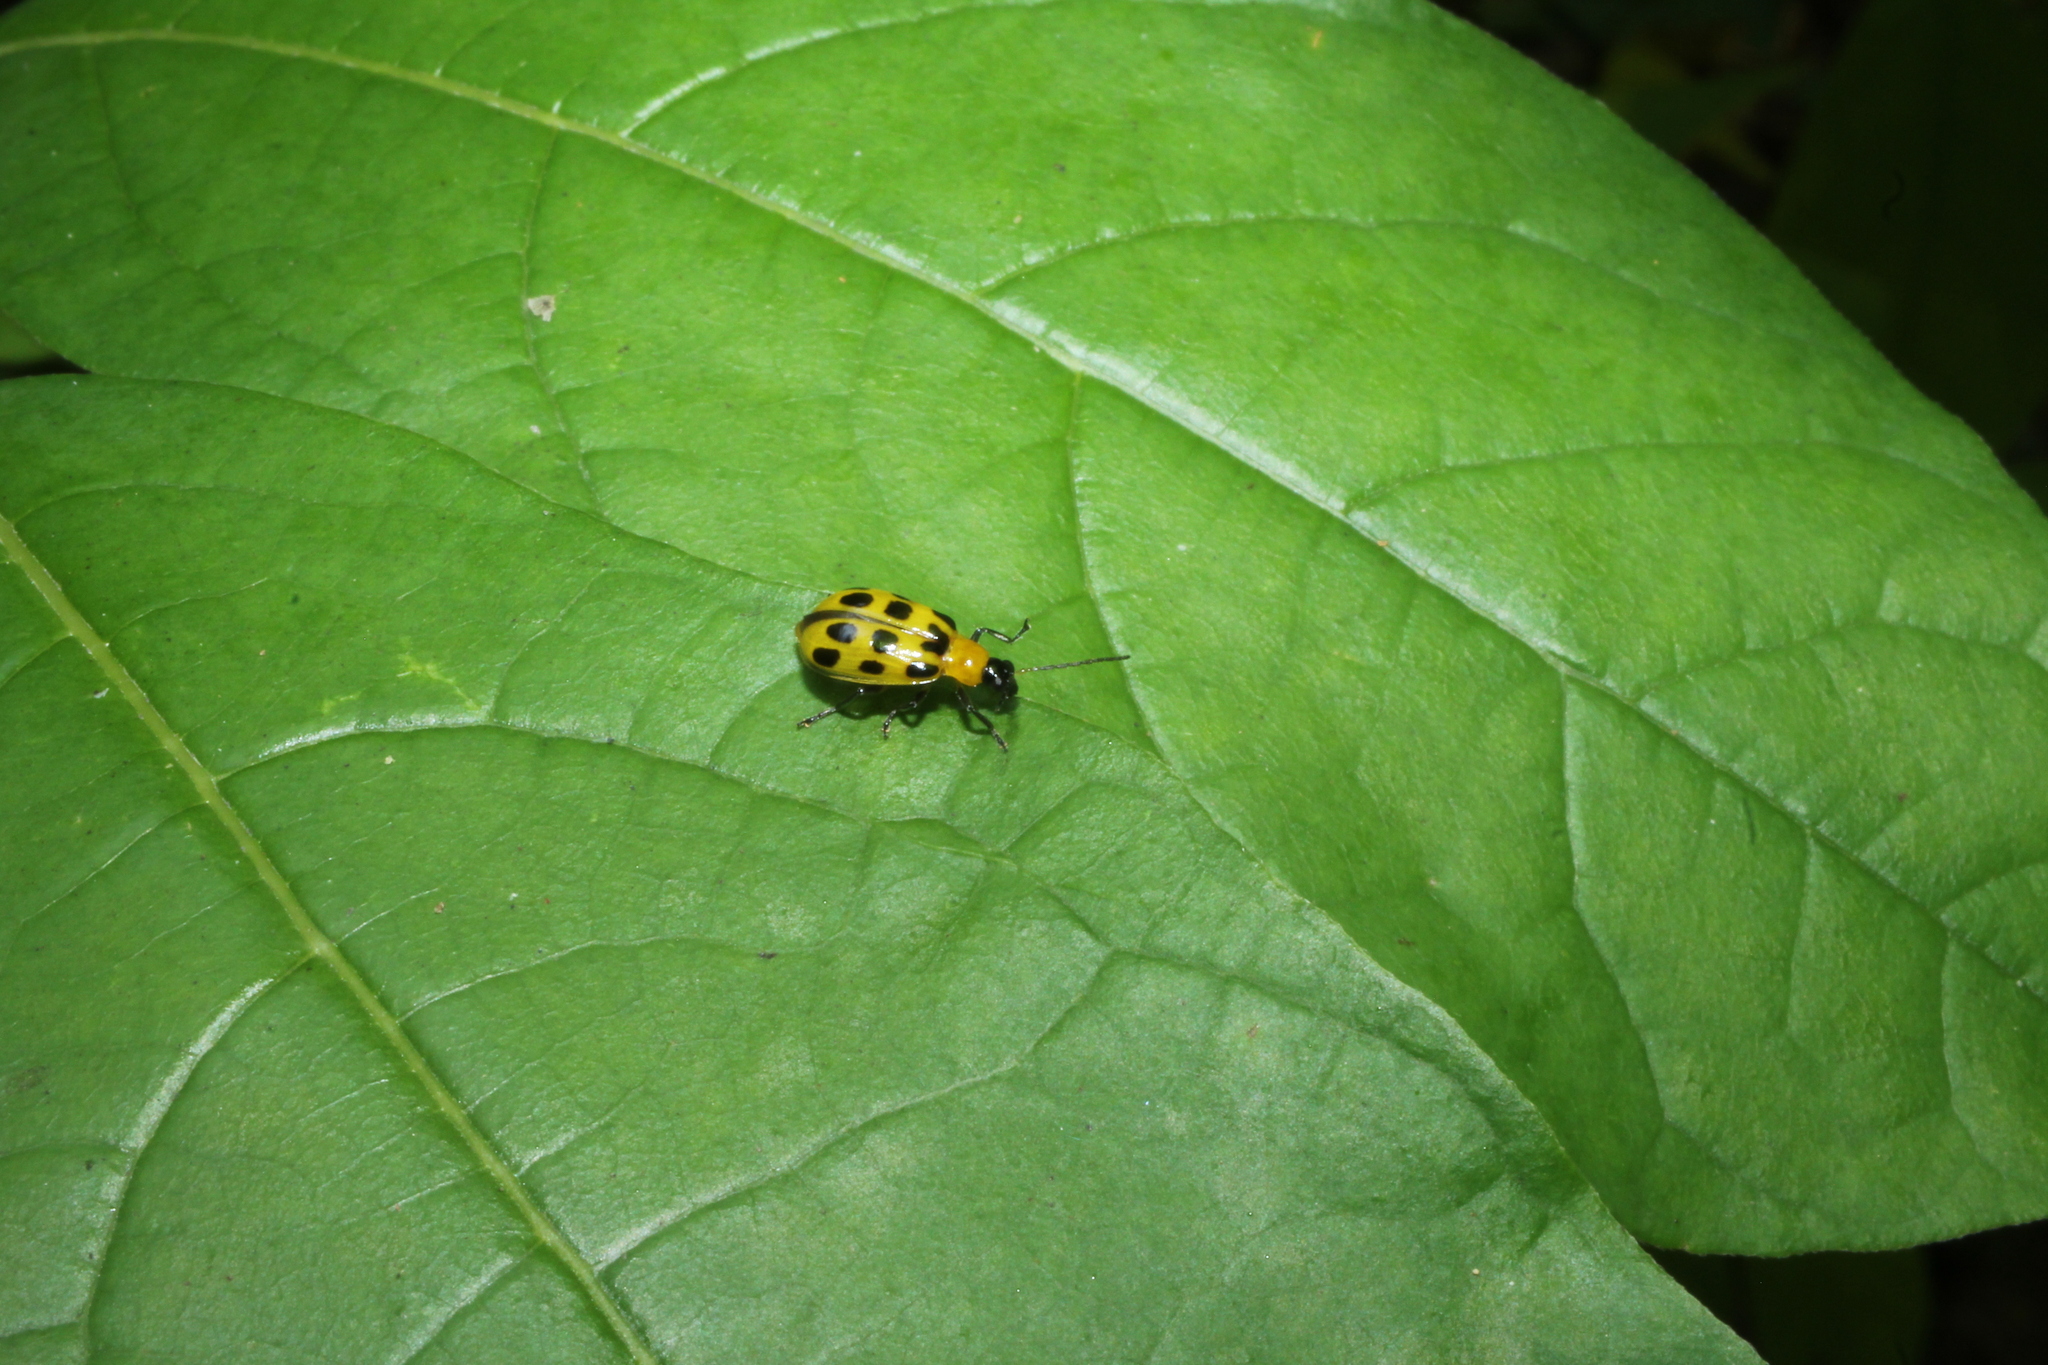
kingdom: Animalia
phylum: Arthropoda
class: Insecta
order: Coleoptera
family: Chrysomelidae
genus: Diabrotica
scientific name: Diabrotica undecimpunctata
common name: Spotted cucumber beetle
